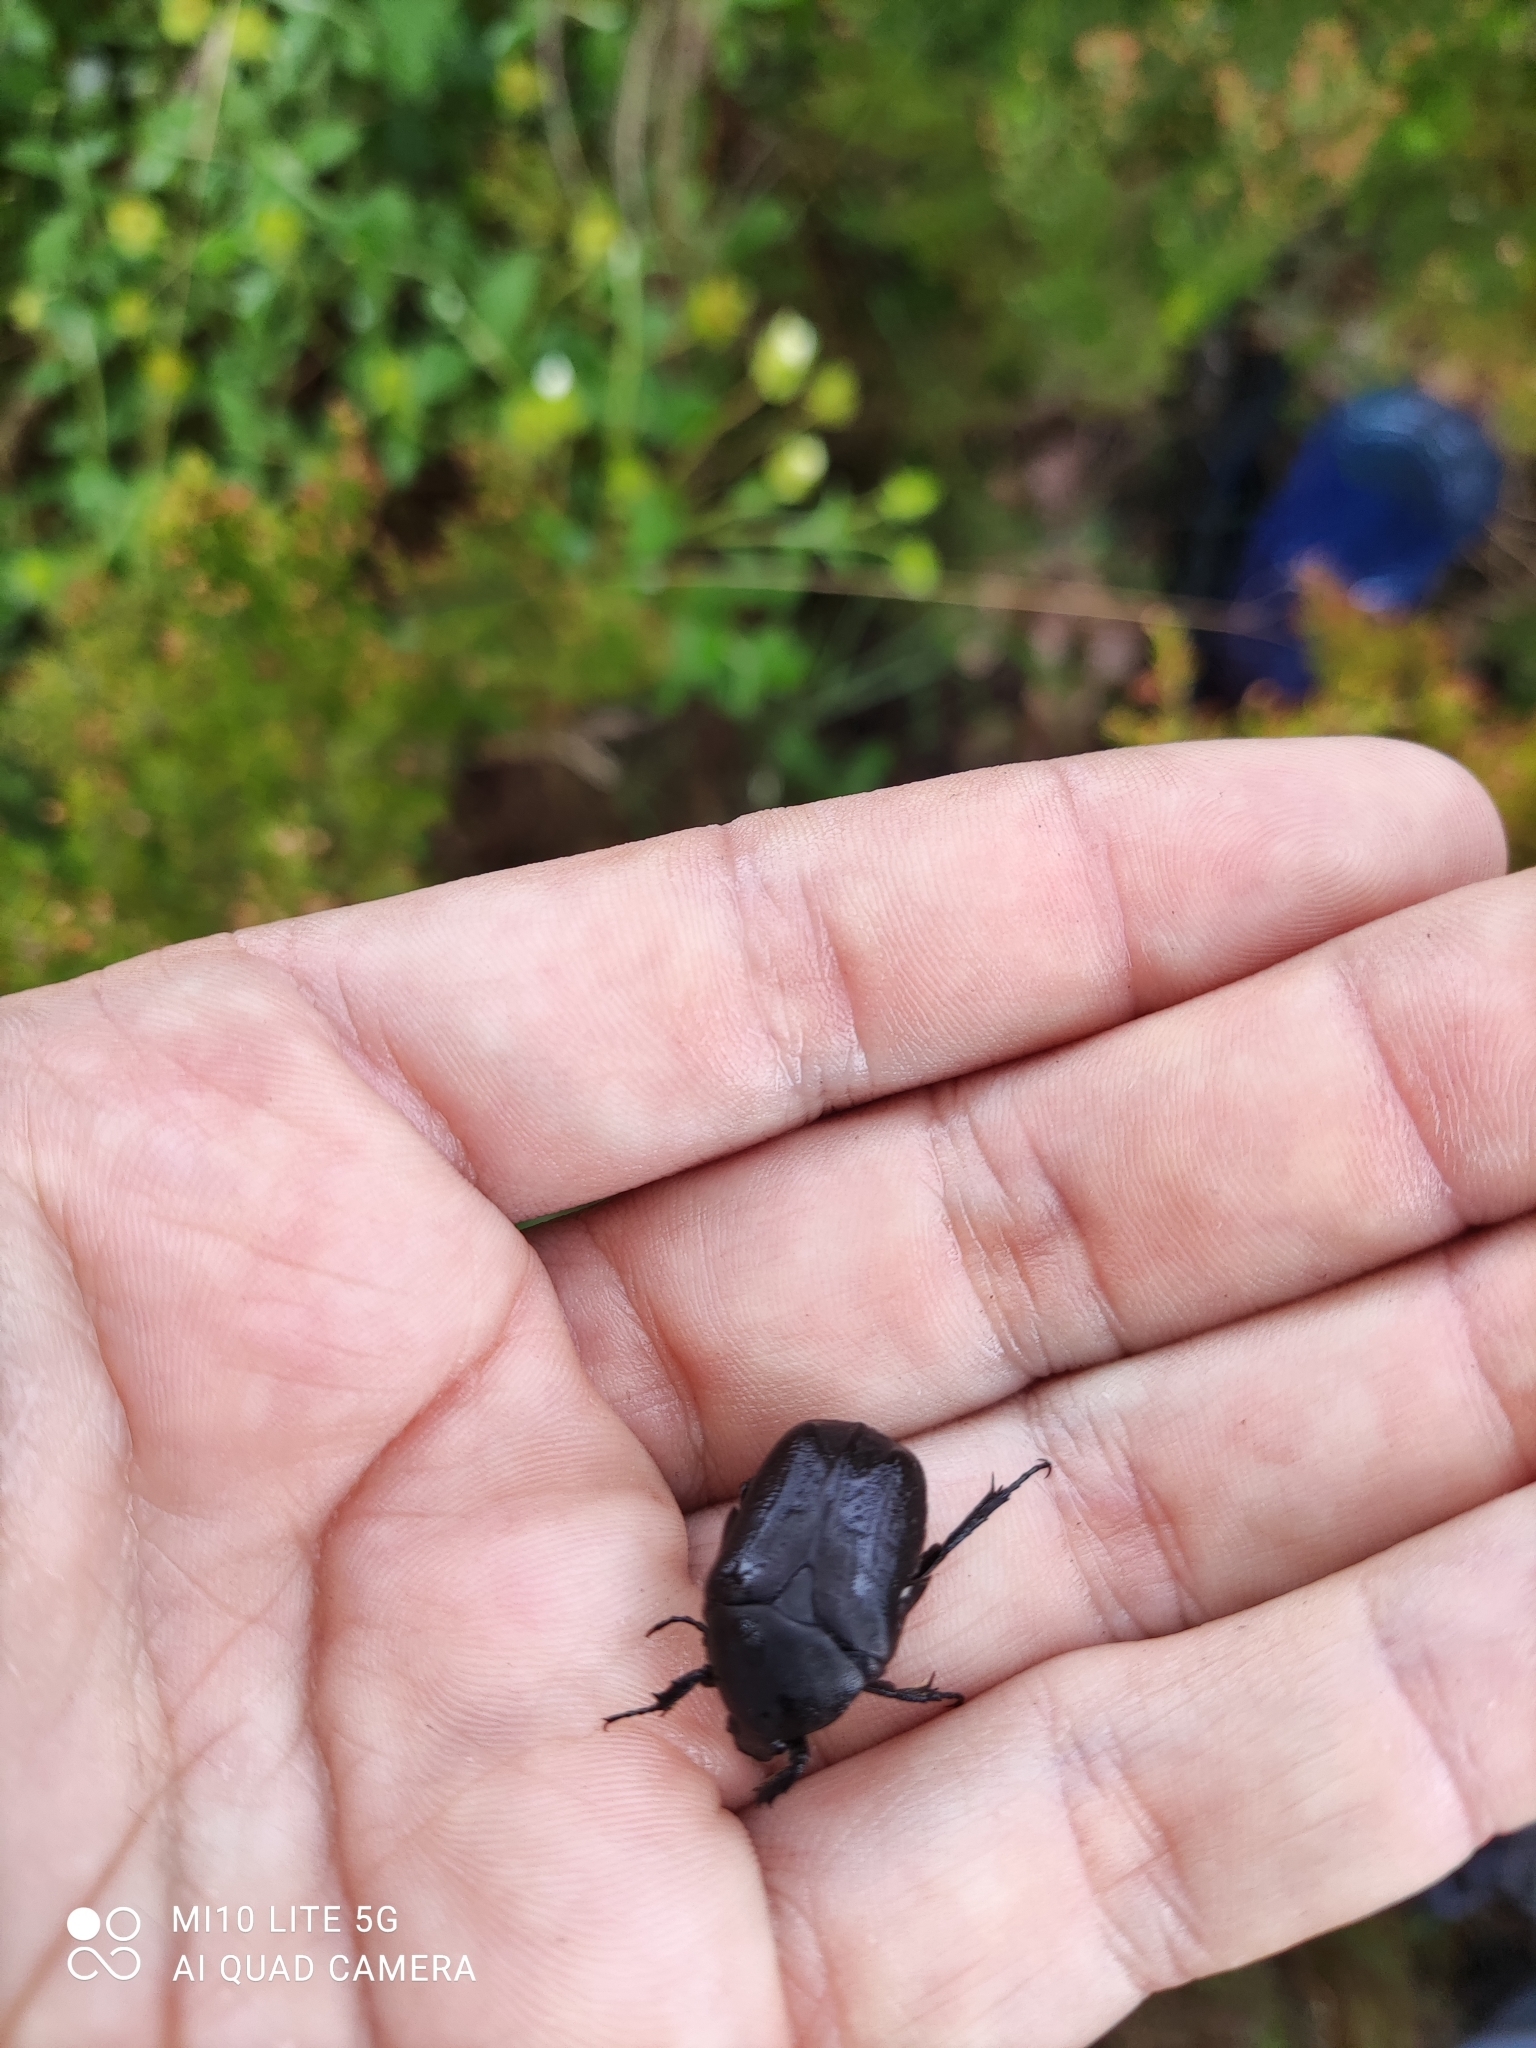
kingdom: Animalia
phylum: Arthropoda
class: Insecta
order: Coleoptera
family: Scarabaeidae
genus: Protaetia
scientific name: Protaetia morio
